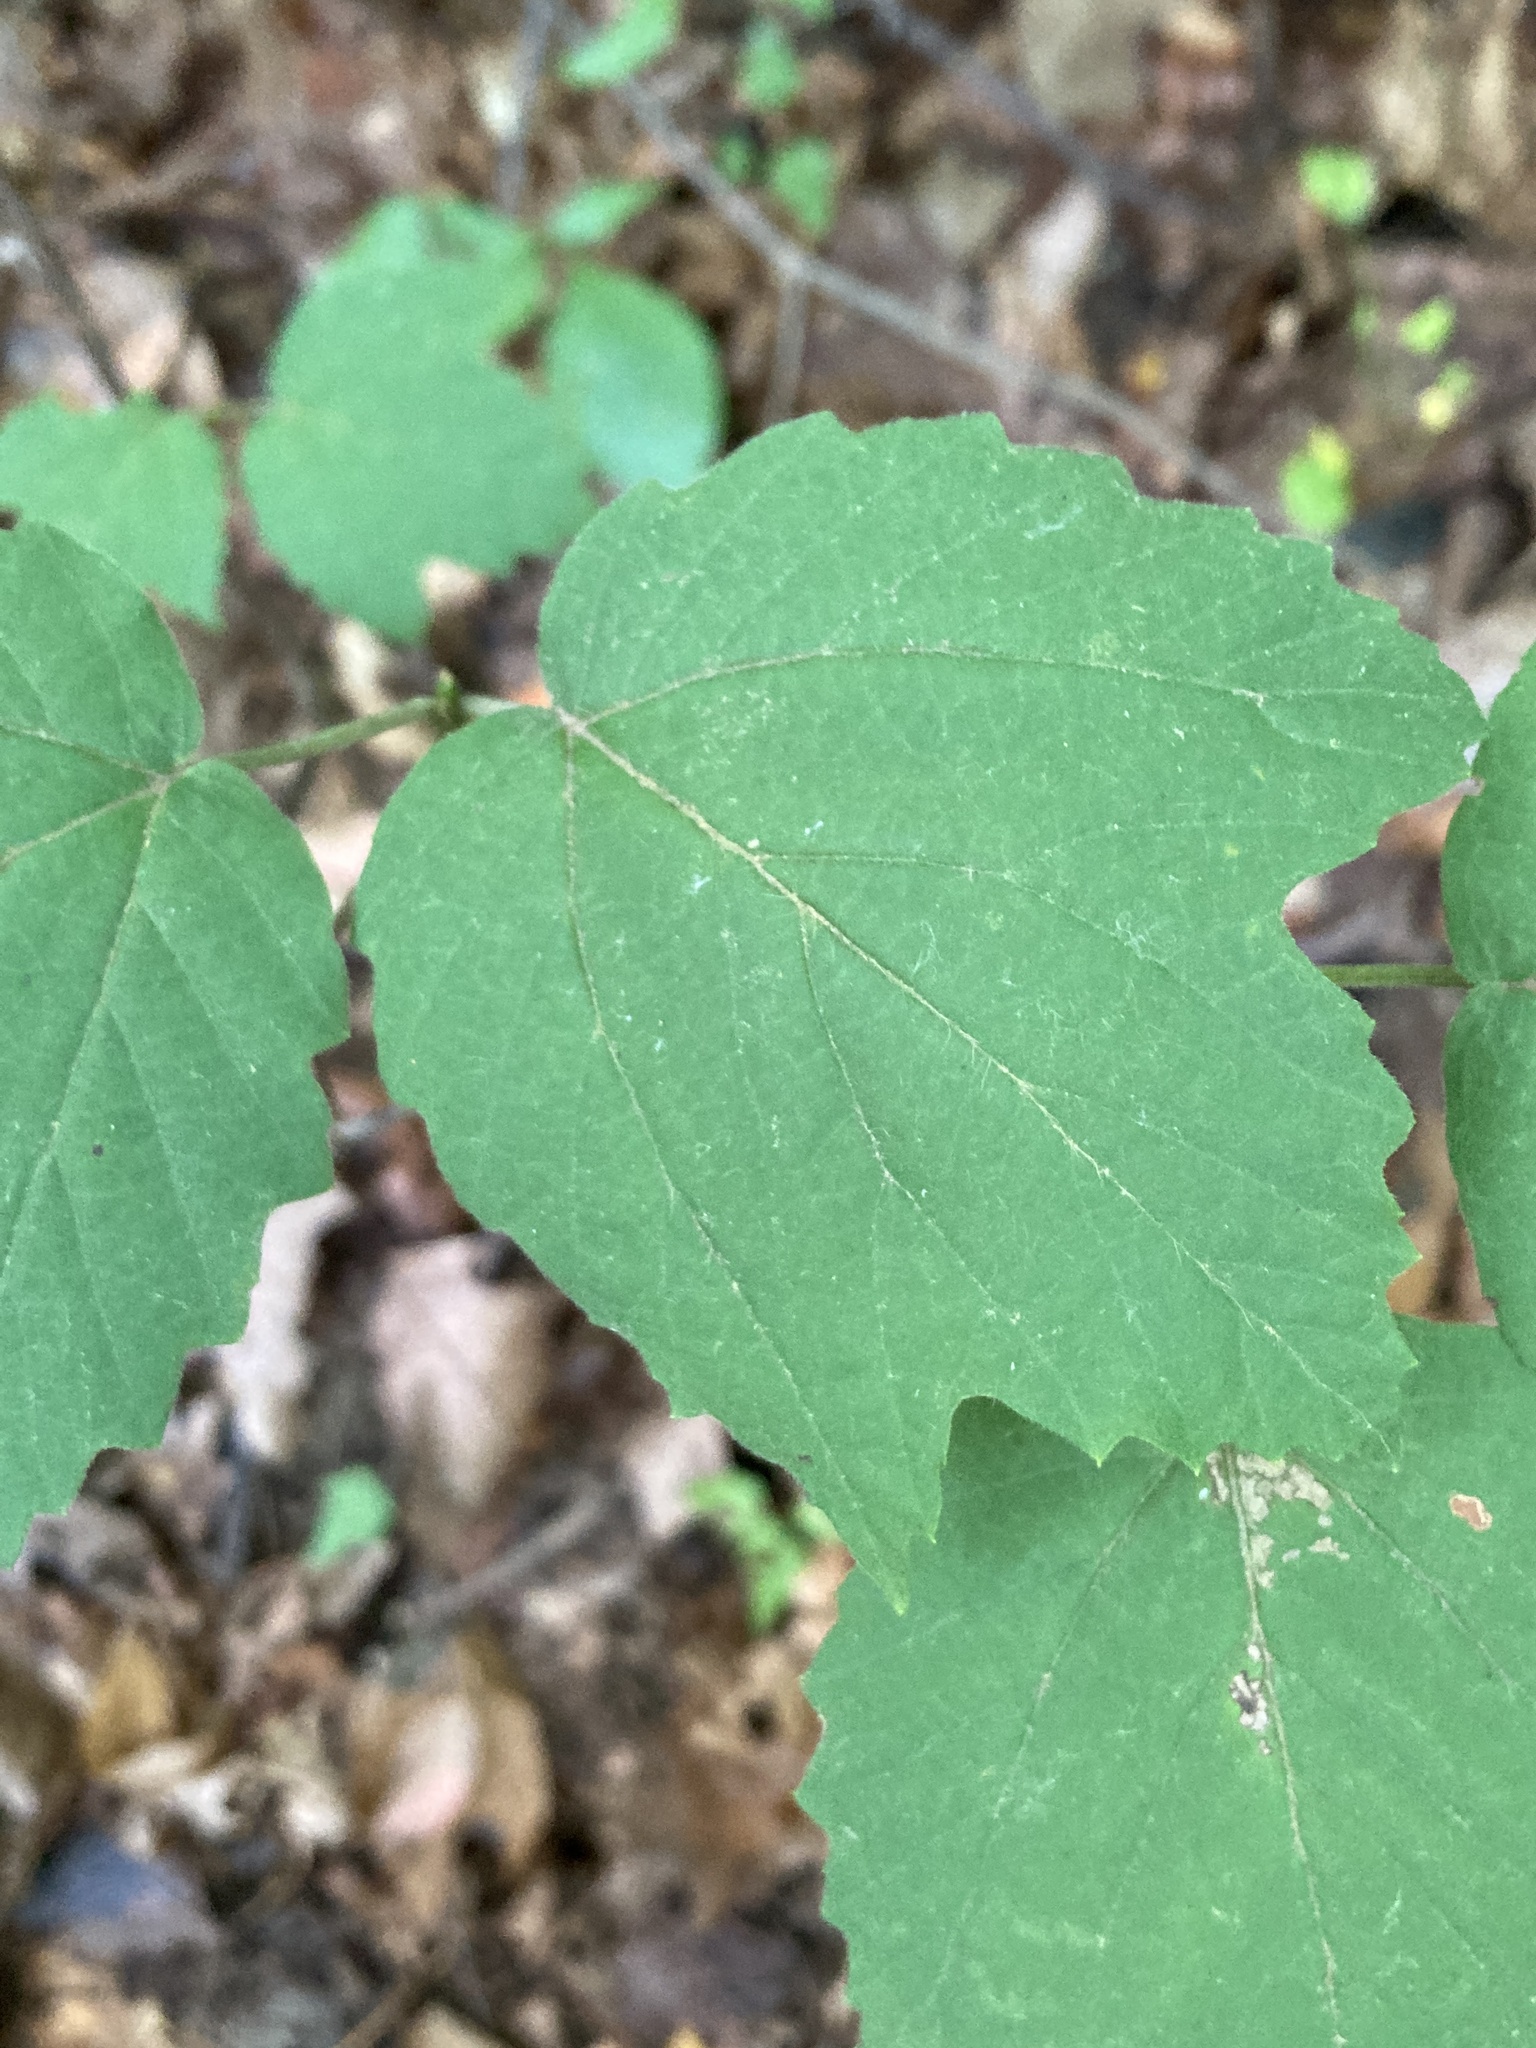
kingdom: Plantae
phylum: Tracheophyta
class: Magnoliopsida
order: Dipsacales
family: Viburnaceae
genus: Viburnum
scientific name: Viburnum acerifolium
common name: Dockmackie
